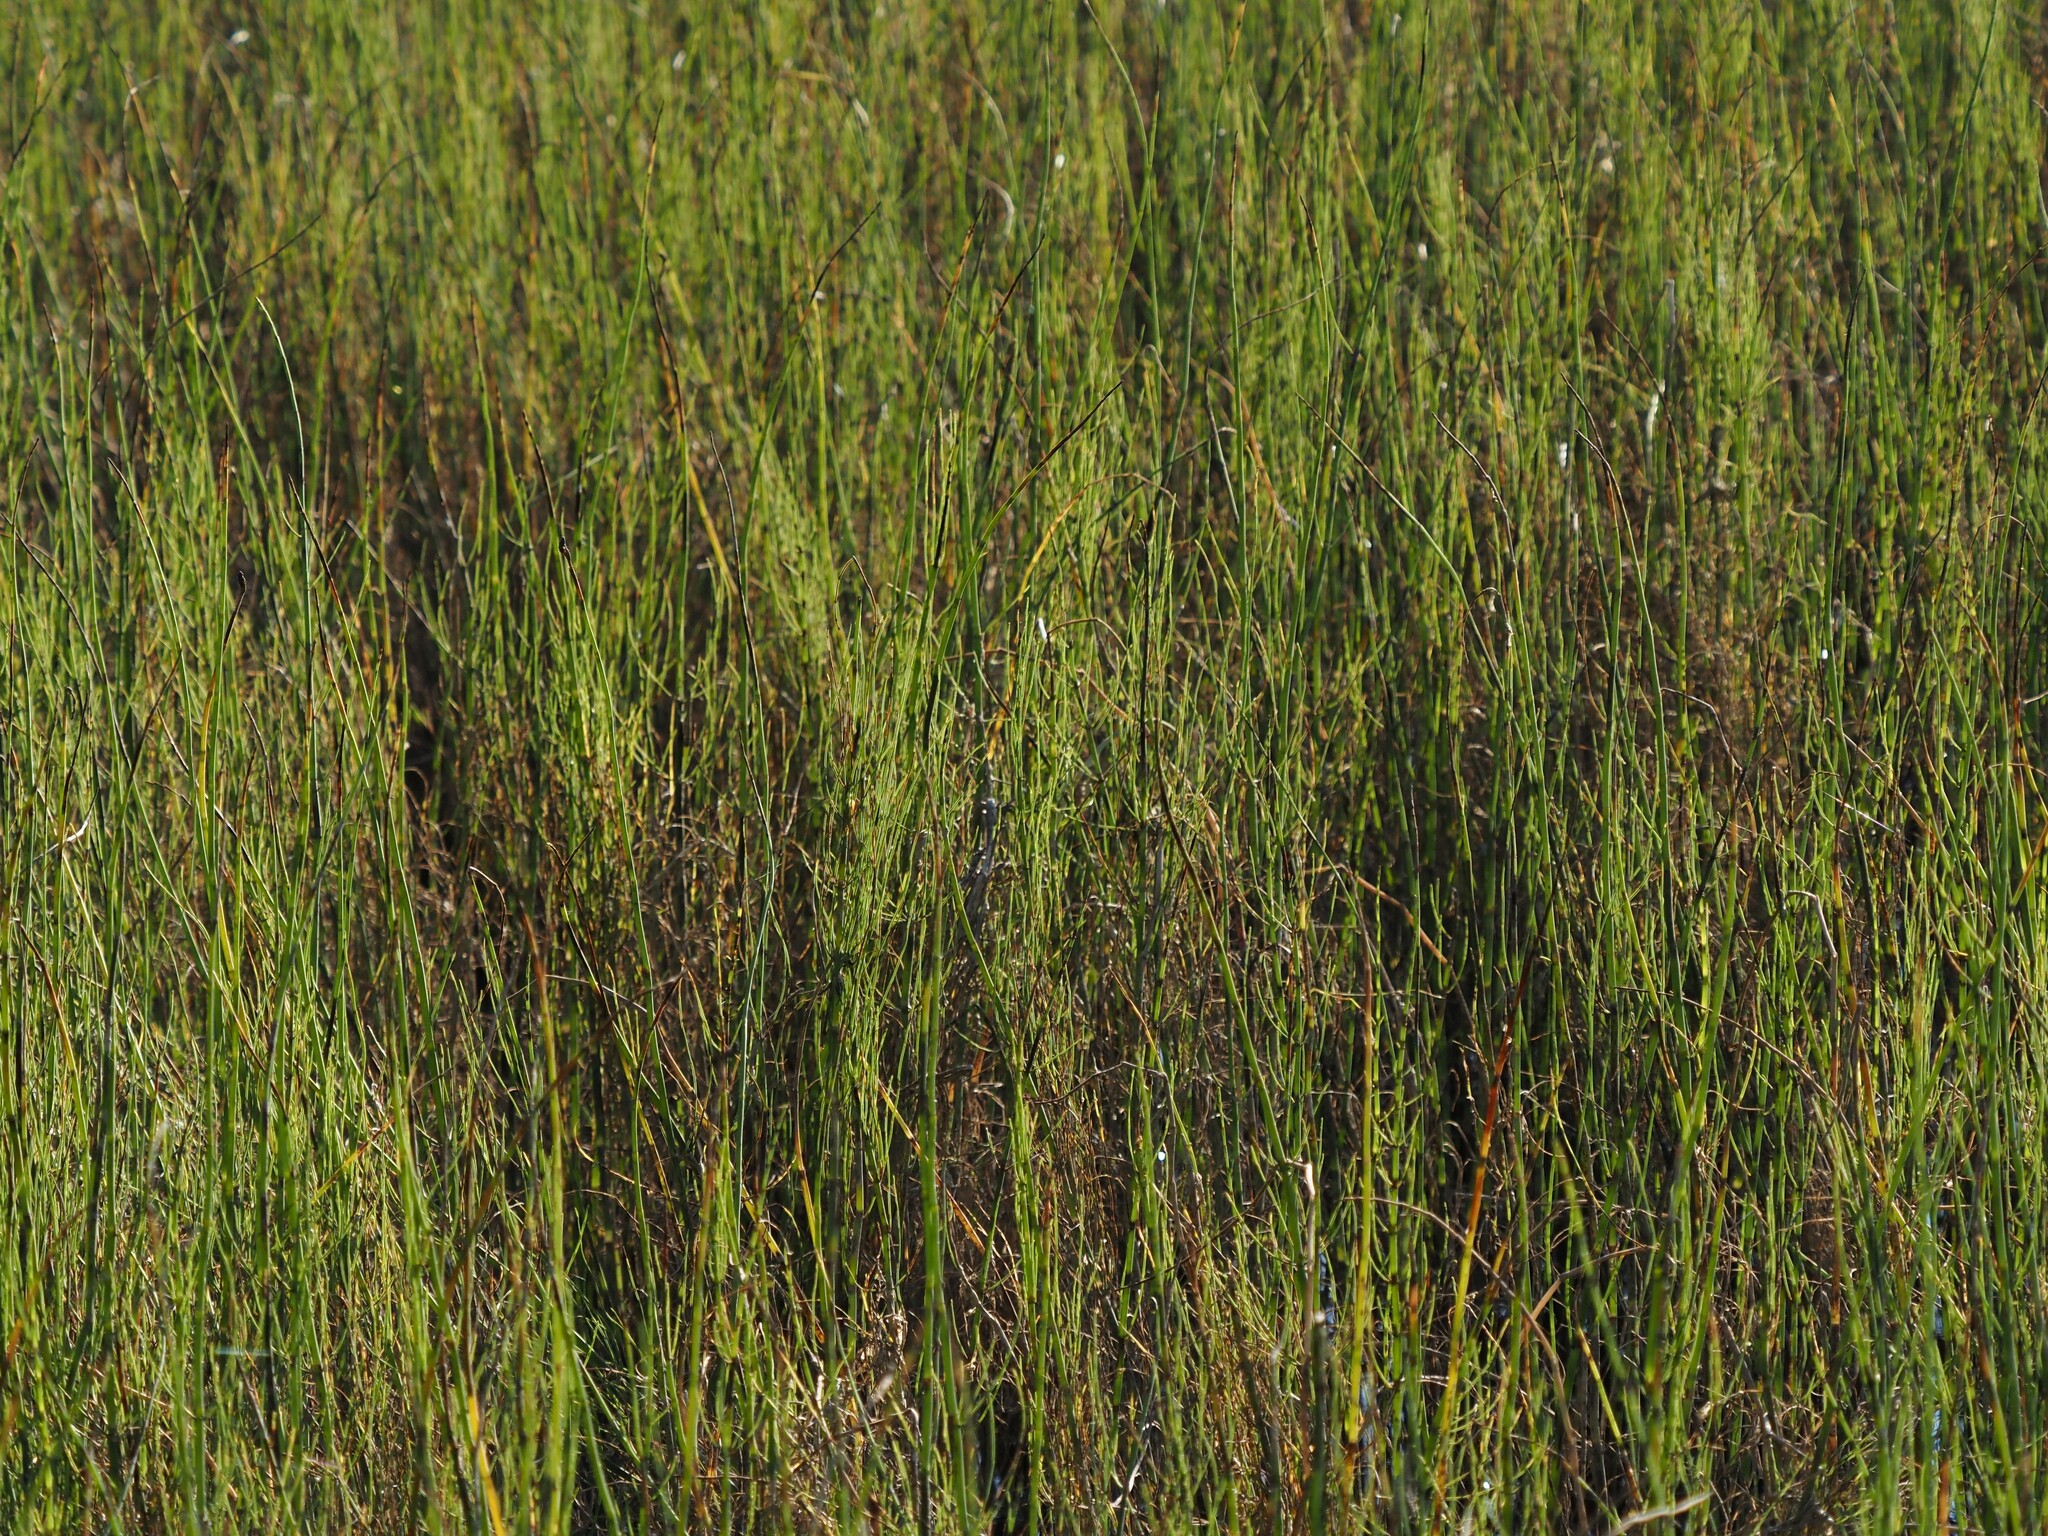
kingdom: Plantae
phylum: Tracheophyta
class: Polypodiopsida
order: Equisetales
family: Equisetaceae
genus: Equisetum
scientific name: Equisetum fluviatile
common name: Water horsetail
